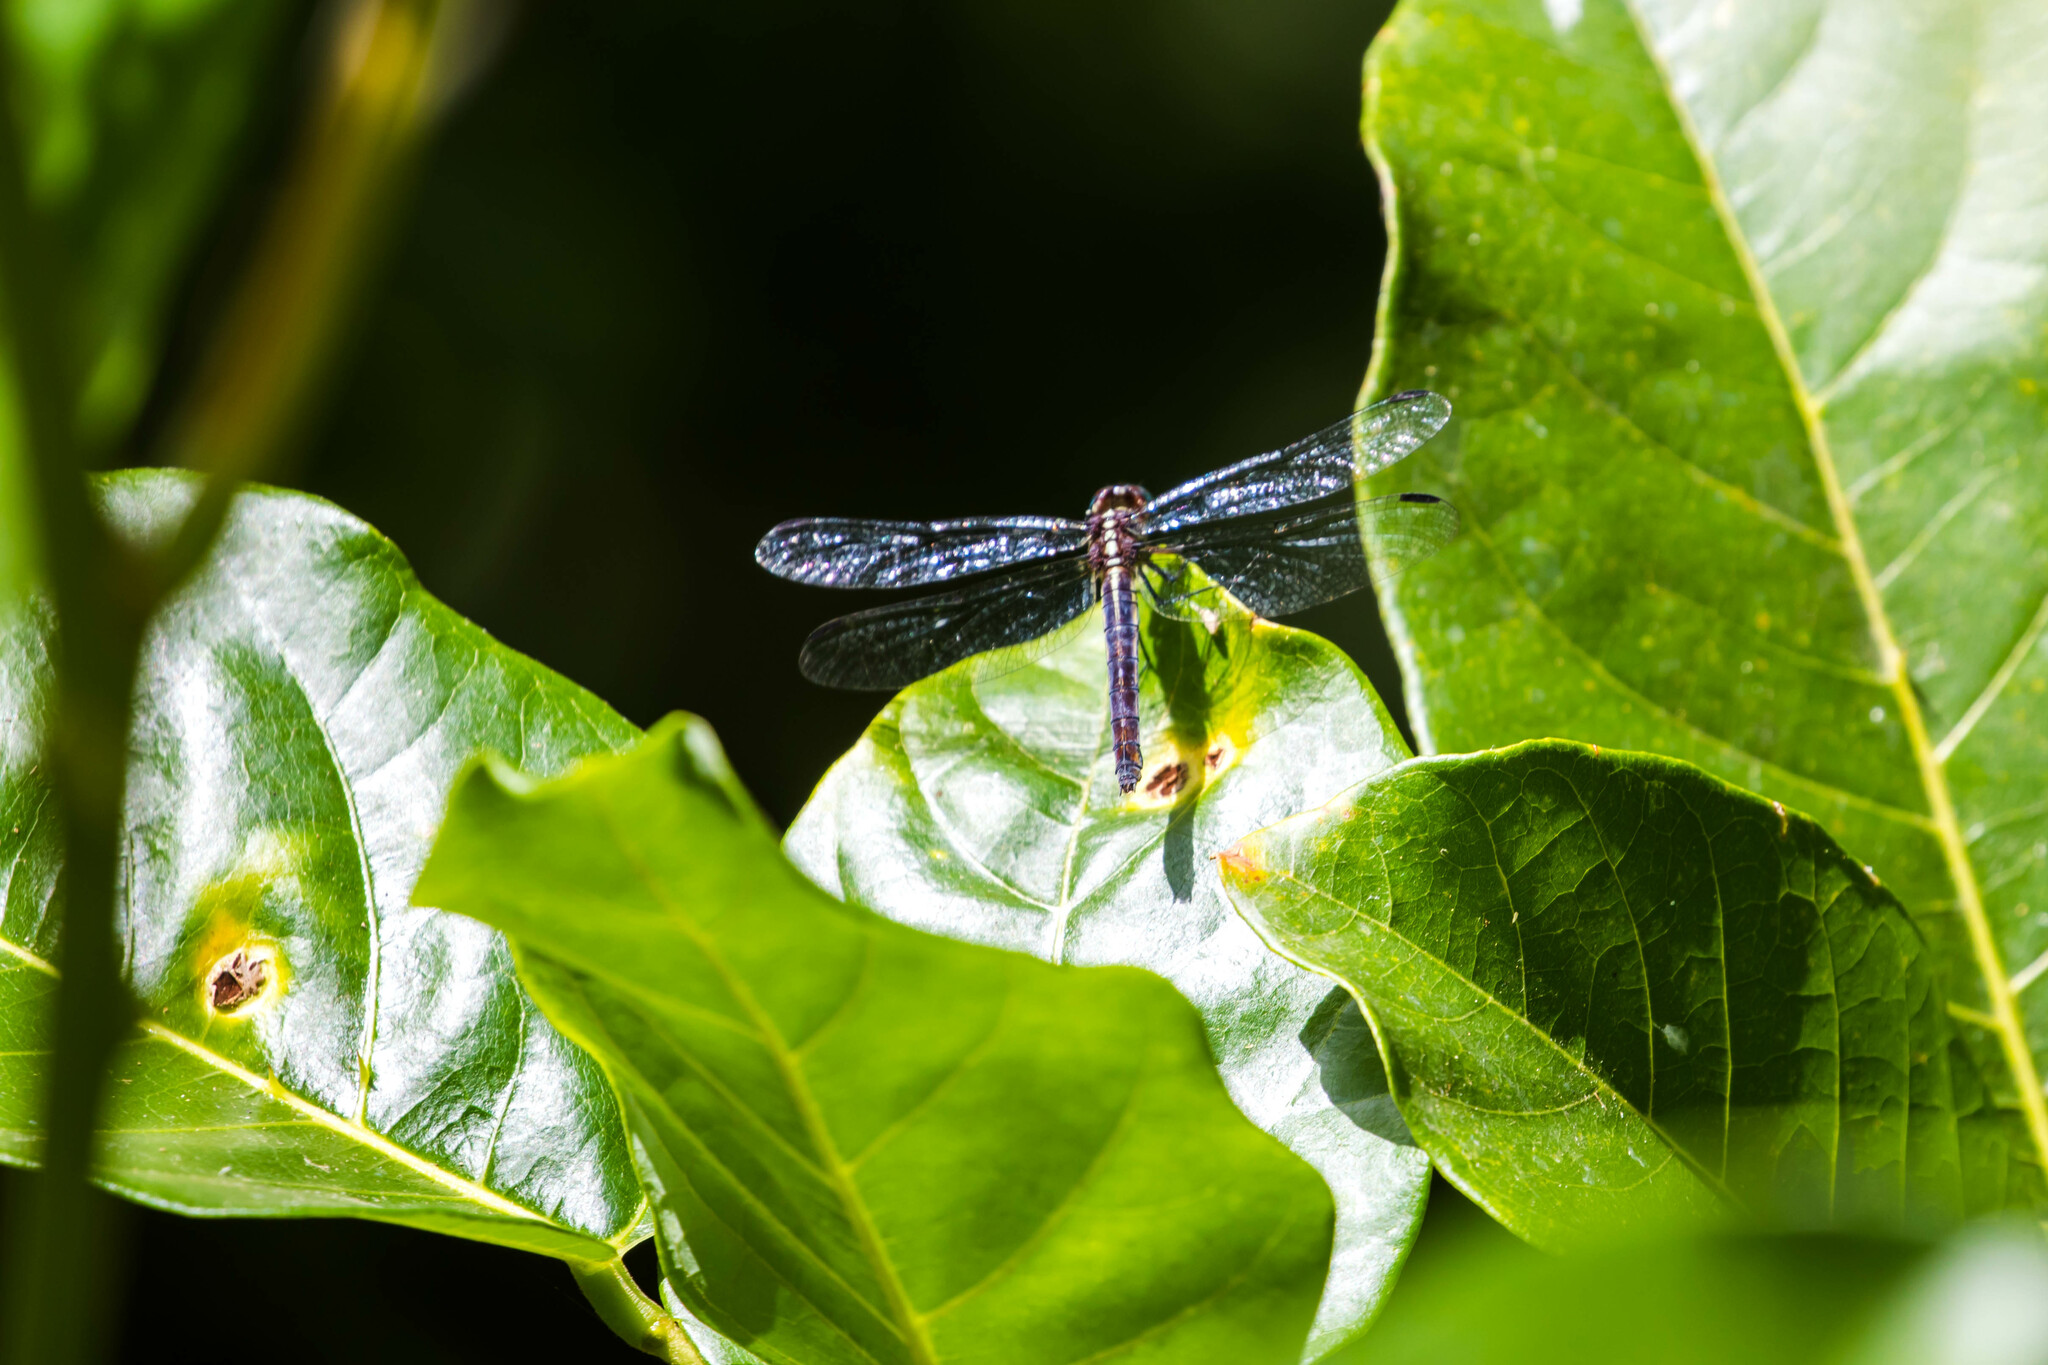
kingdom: Animalia
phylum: Arthropoda
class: Insecta
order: Odonata
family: Libellulidae
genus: Cannaphila
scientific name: Cannaphila vibex
